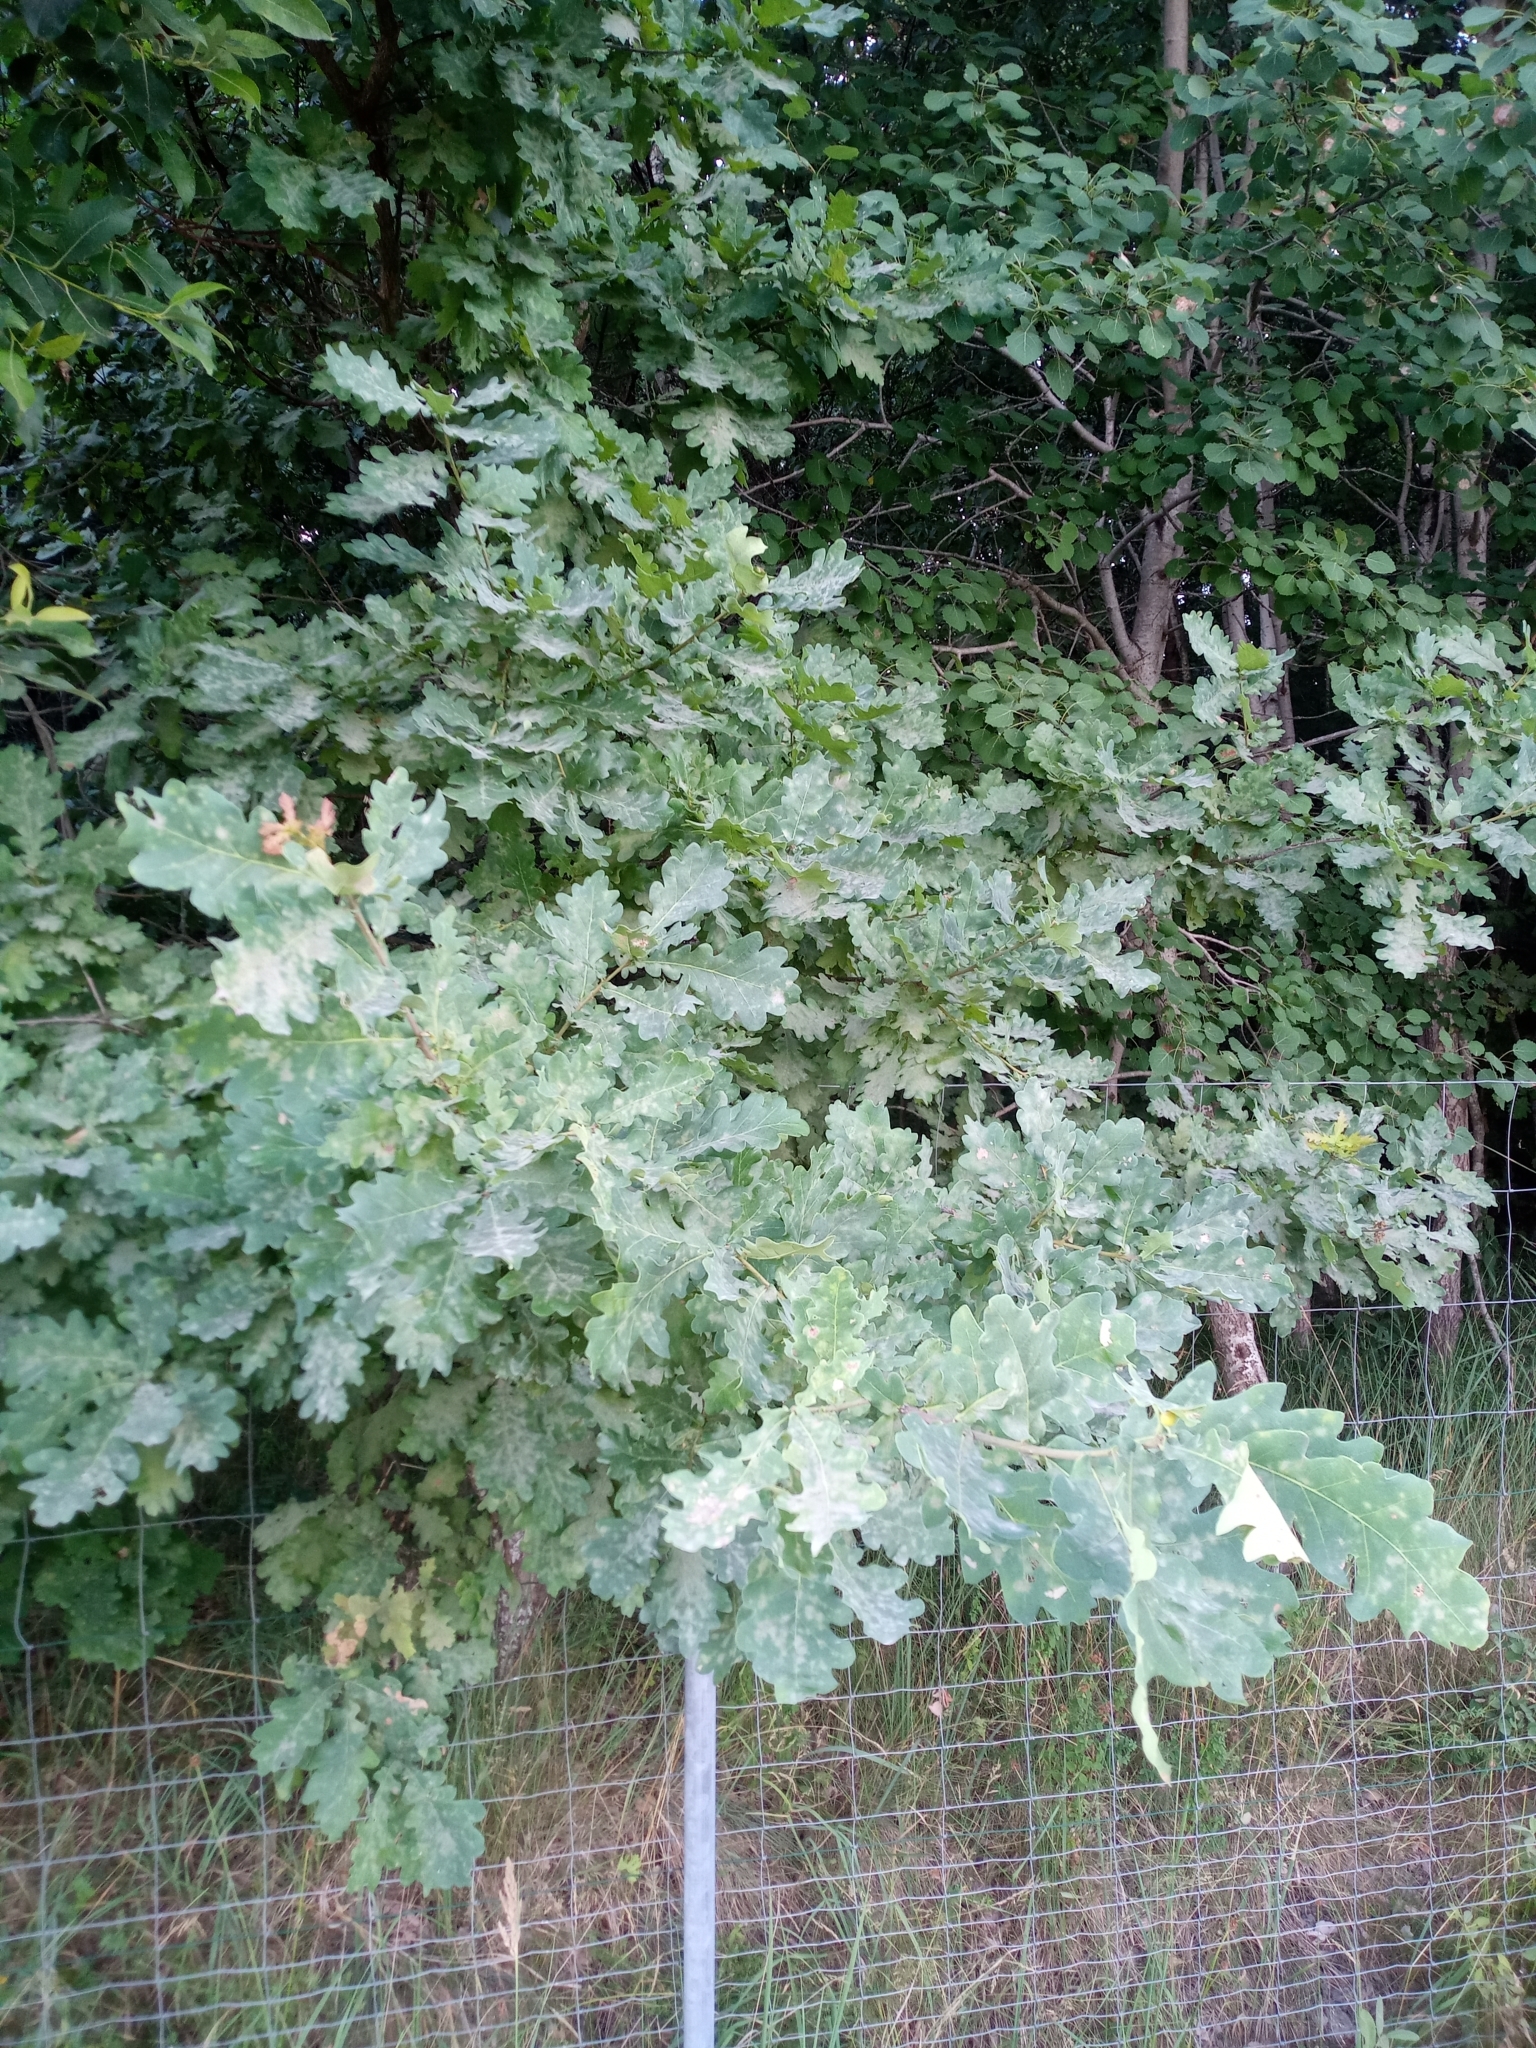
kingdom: Plantae
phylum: Tracheophyta
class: Magnoliopsida
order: Fagales
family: Fagaceae
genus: Quercus
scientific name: Quercus robur
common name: Pedunculate oak
